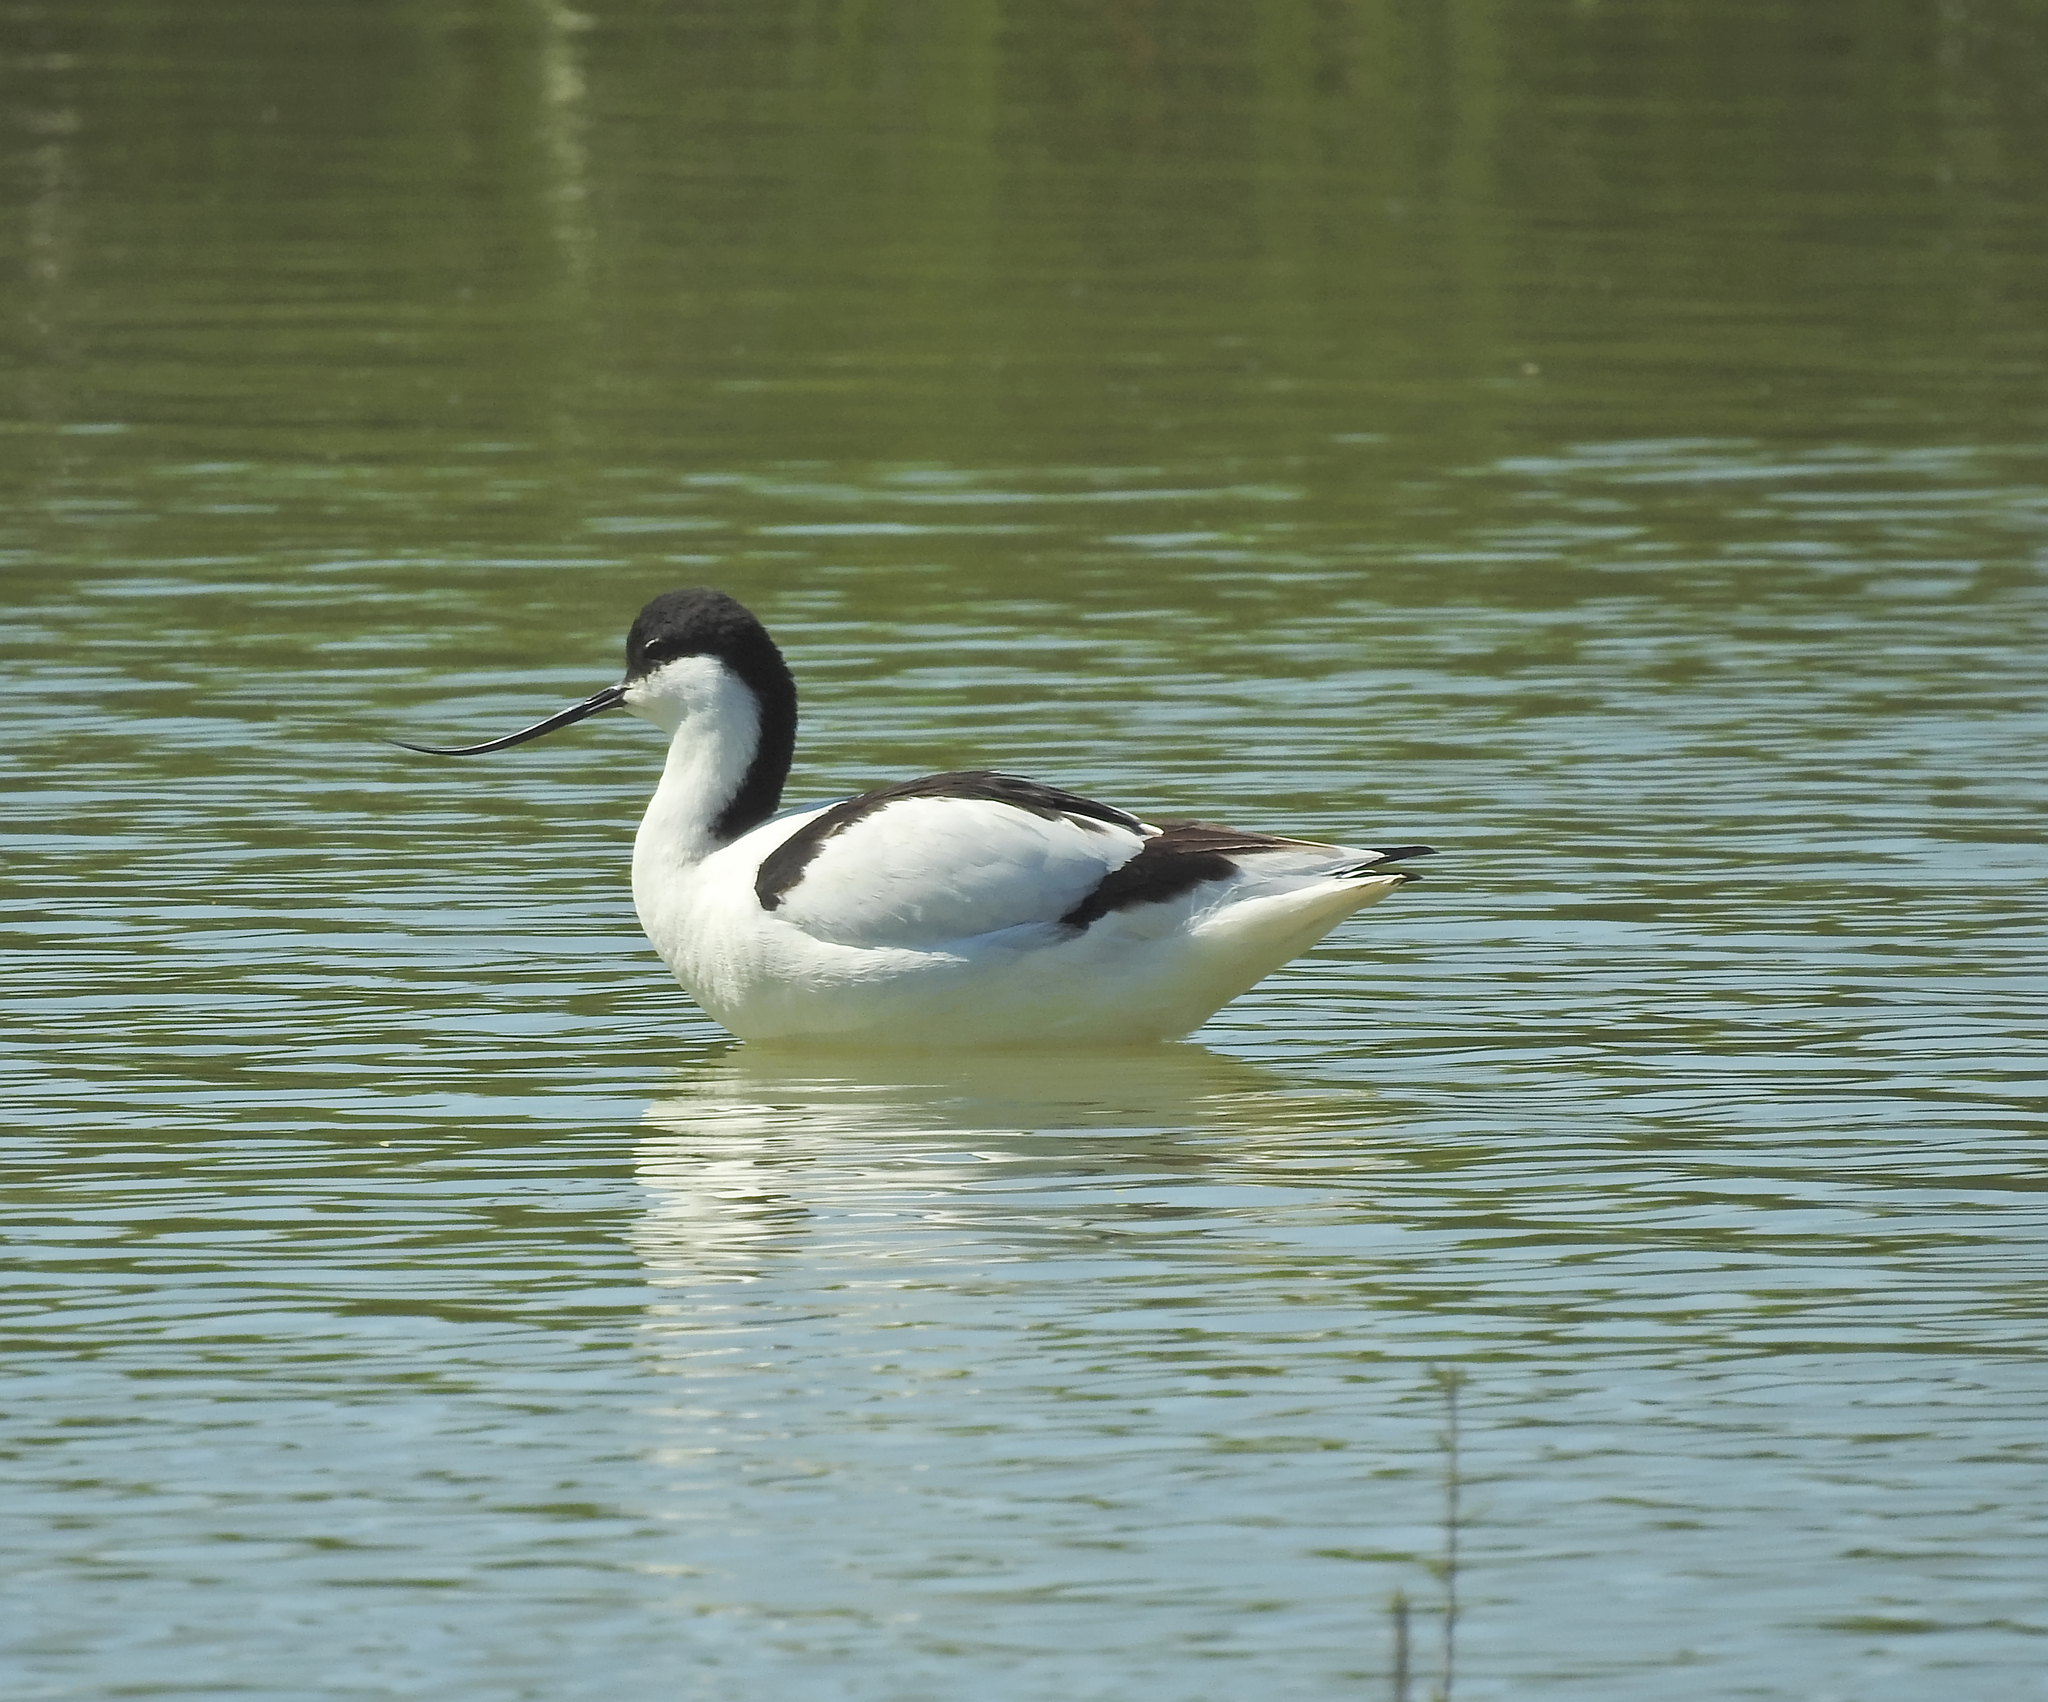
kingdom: Animalia
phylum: Chordata
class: Aves
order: Charadriiformes
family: Recurvirostridae
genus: Recurvirostra
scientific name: Recurvirostra avosetta
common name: Pied avocet
